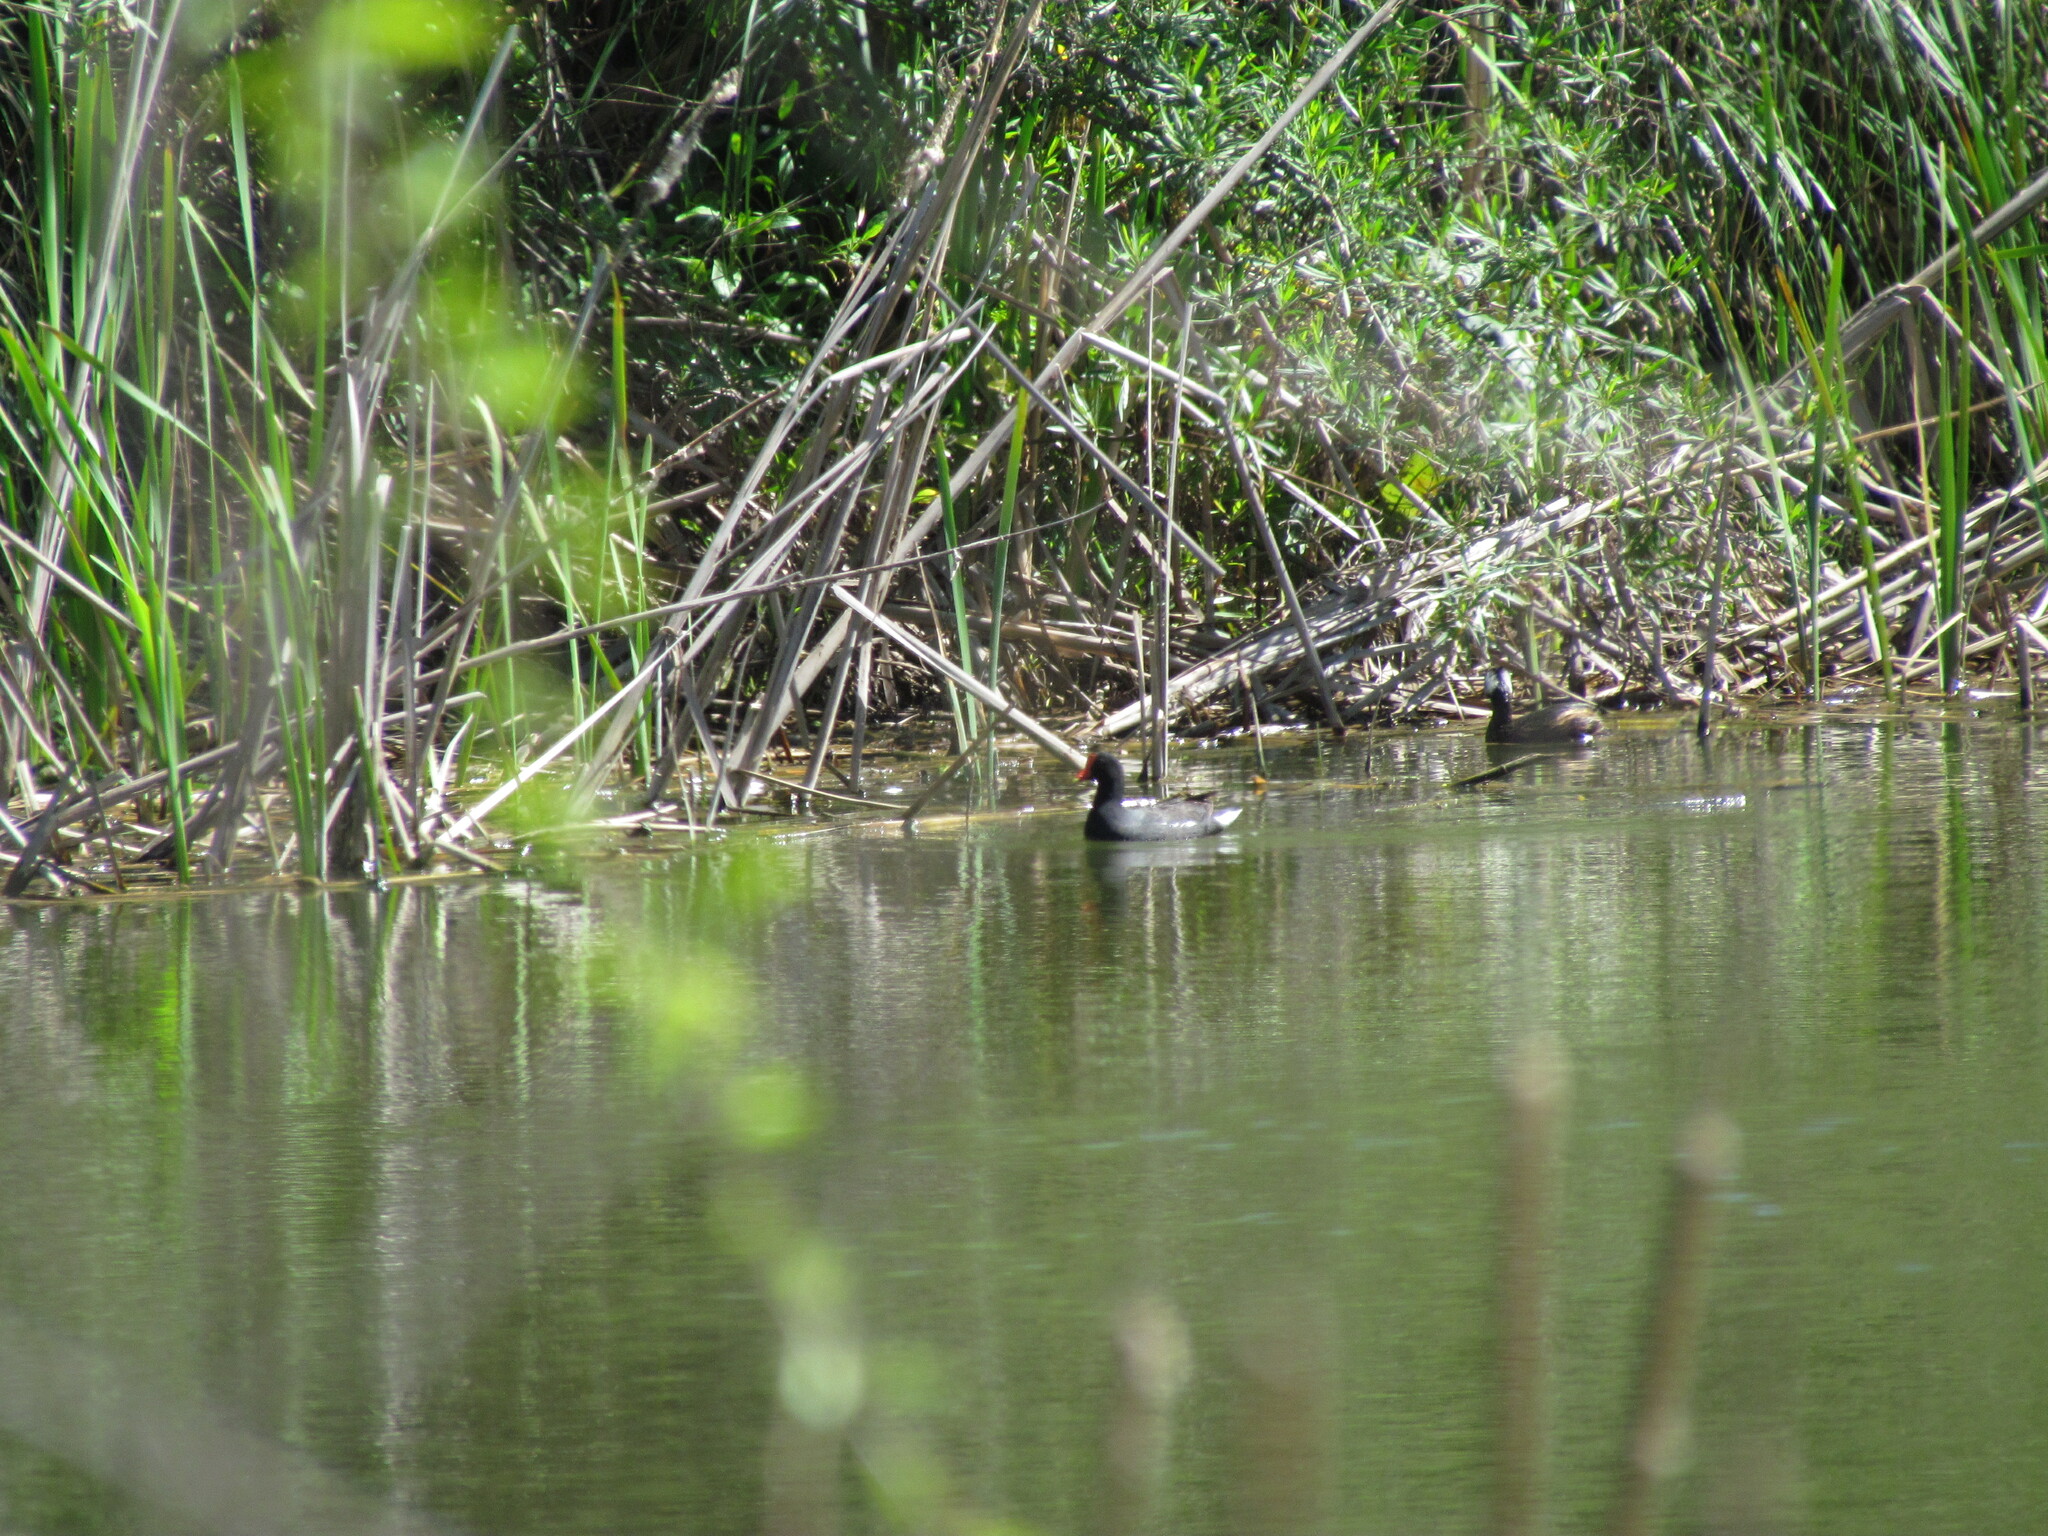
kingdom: Animalia
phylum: Chordata
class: Aves
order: Gruiformes
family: Rallidae
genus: Gallinula
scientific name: Gallinula chloropus
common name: Common moorhen
